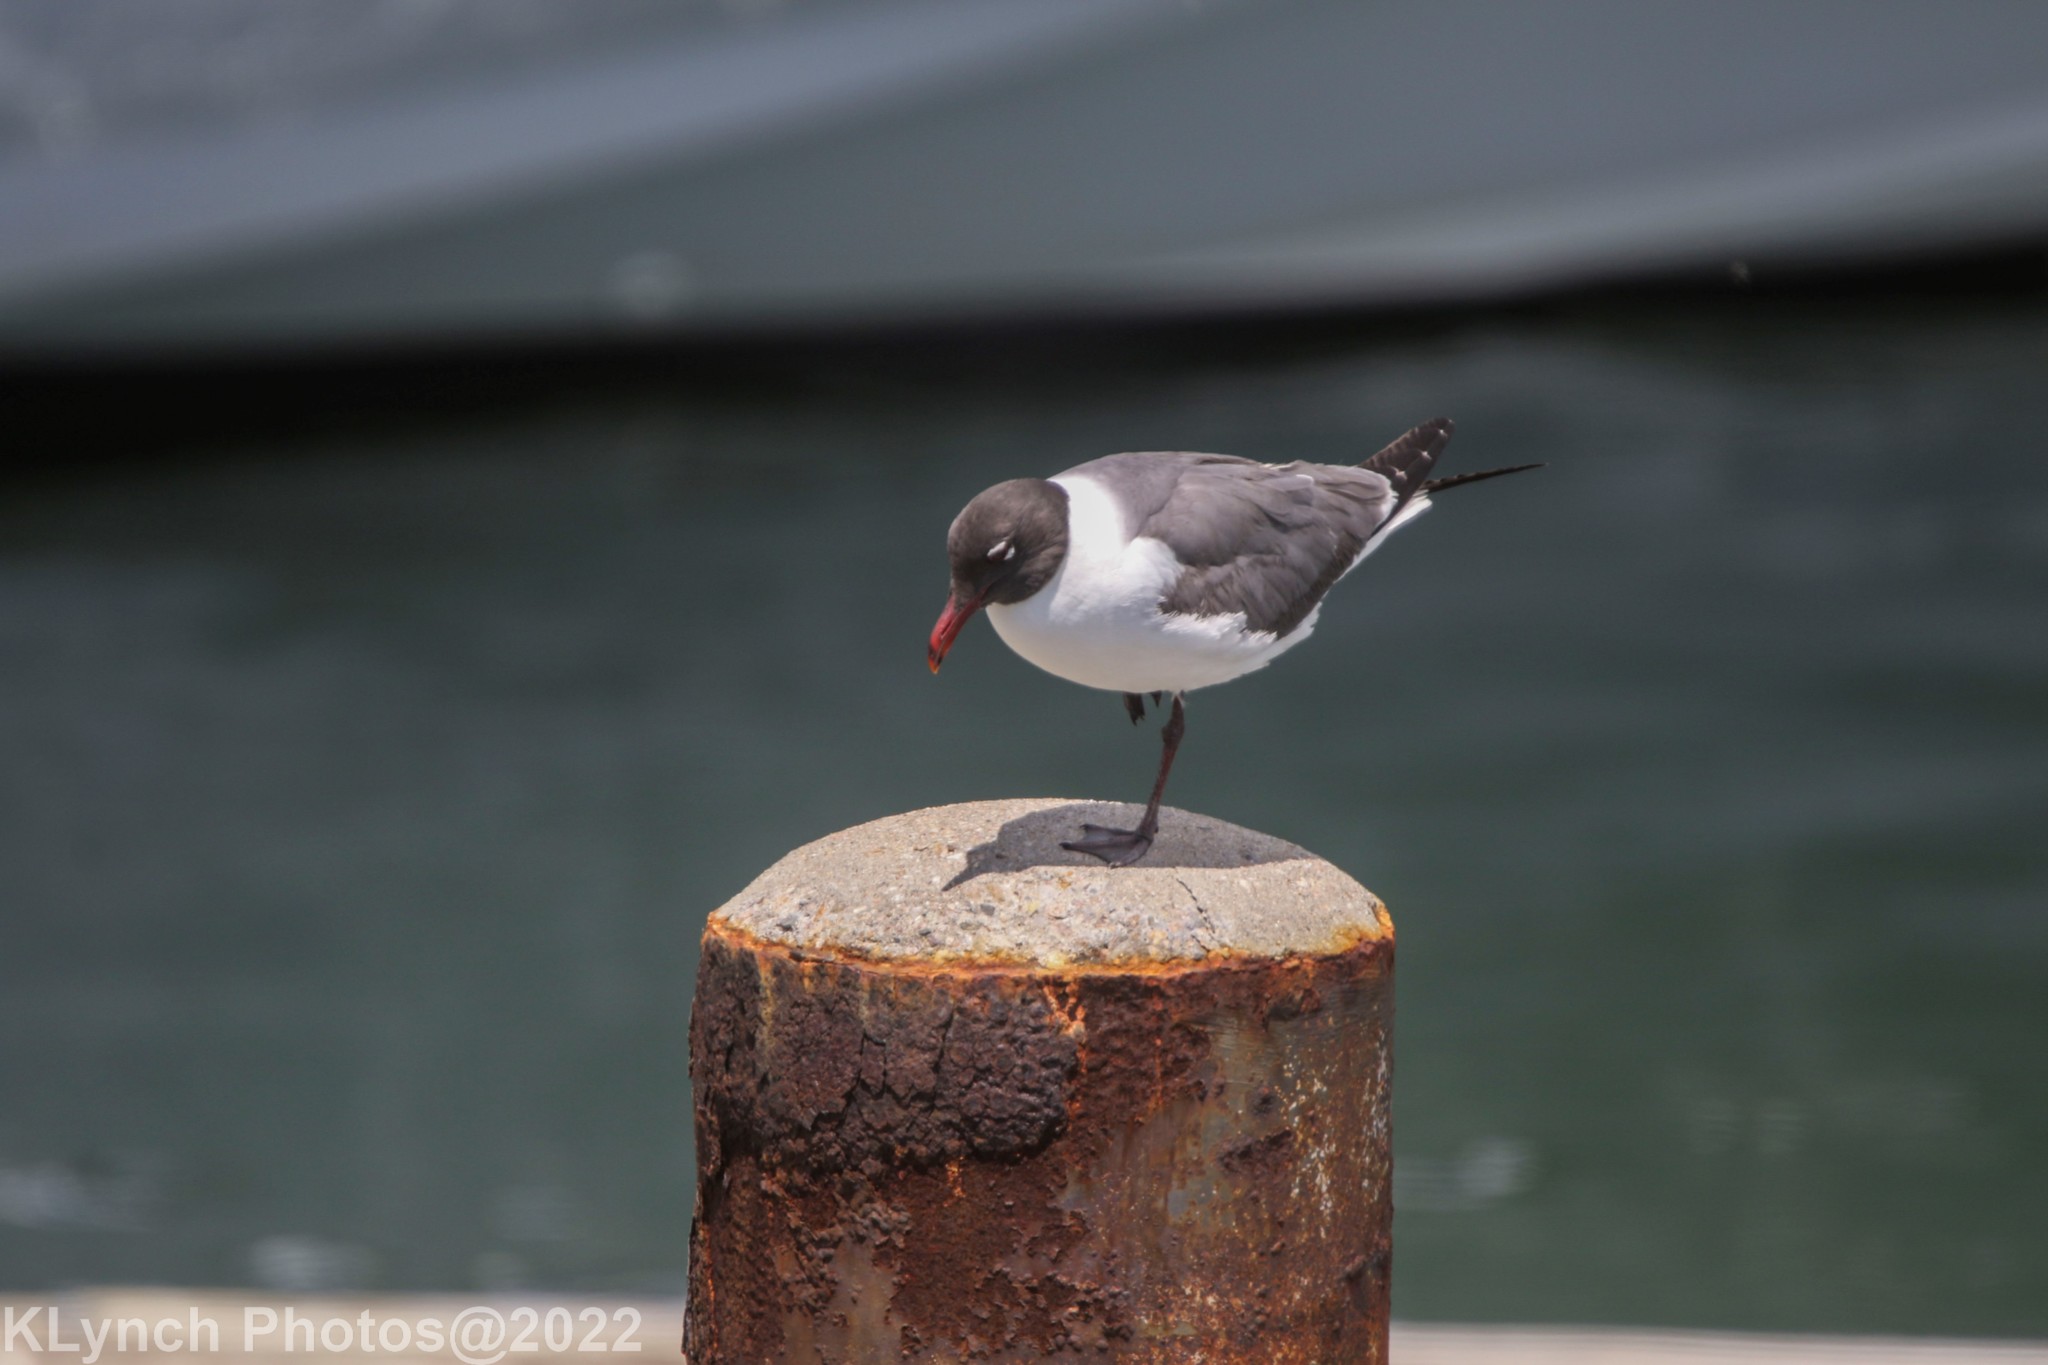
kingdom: Animalia
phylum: Chordata
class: Aves
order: Charadriiformes
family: Laridae
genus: Leucophaeus
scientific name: Leucophaeus atricilla
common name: Laughing gull
